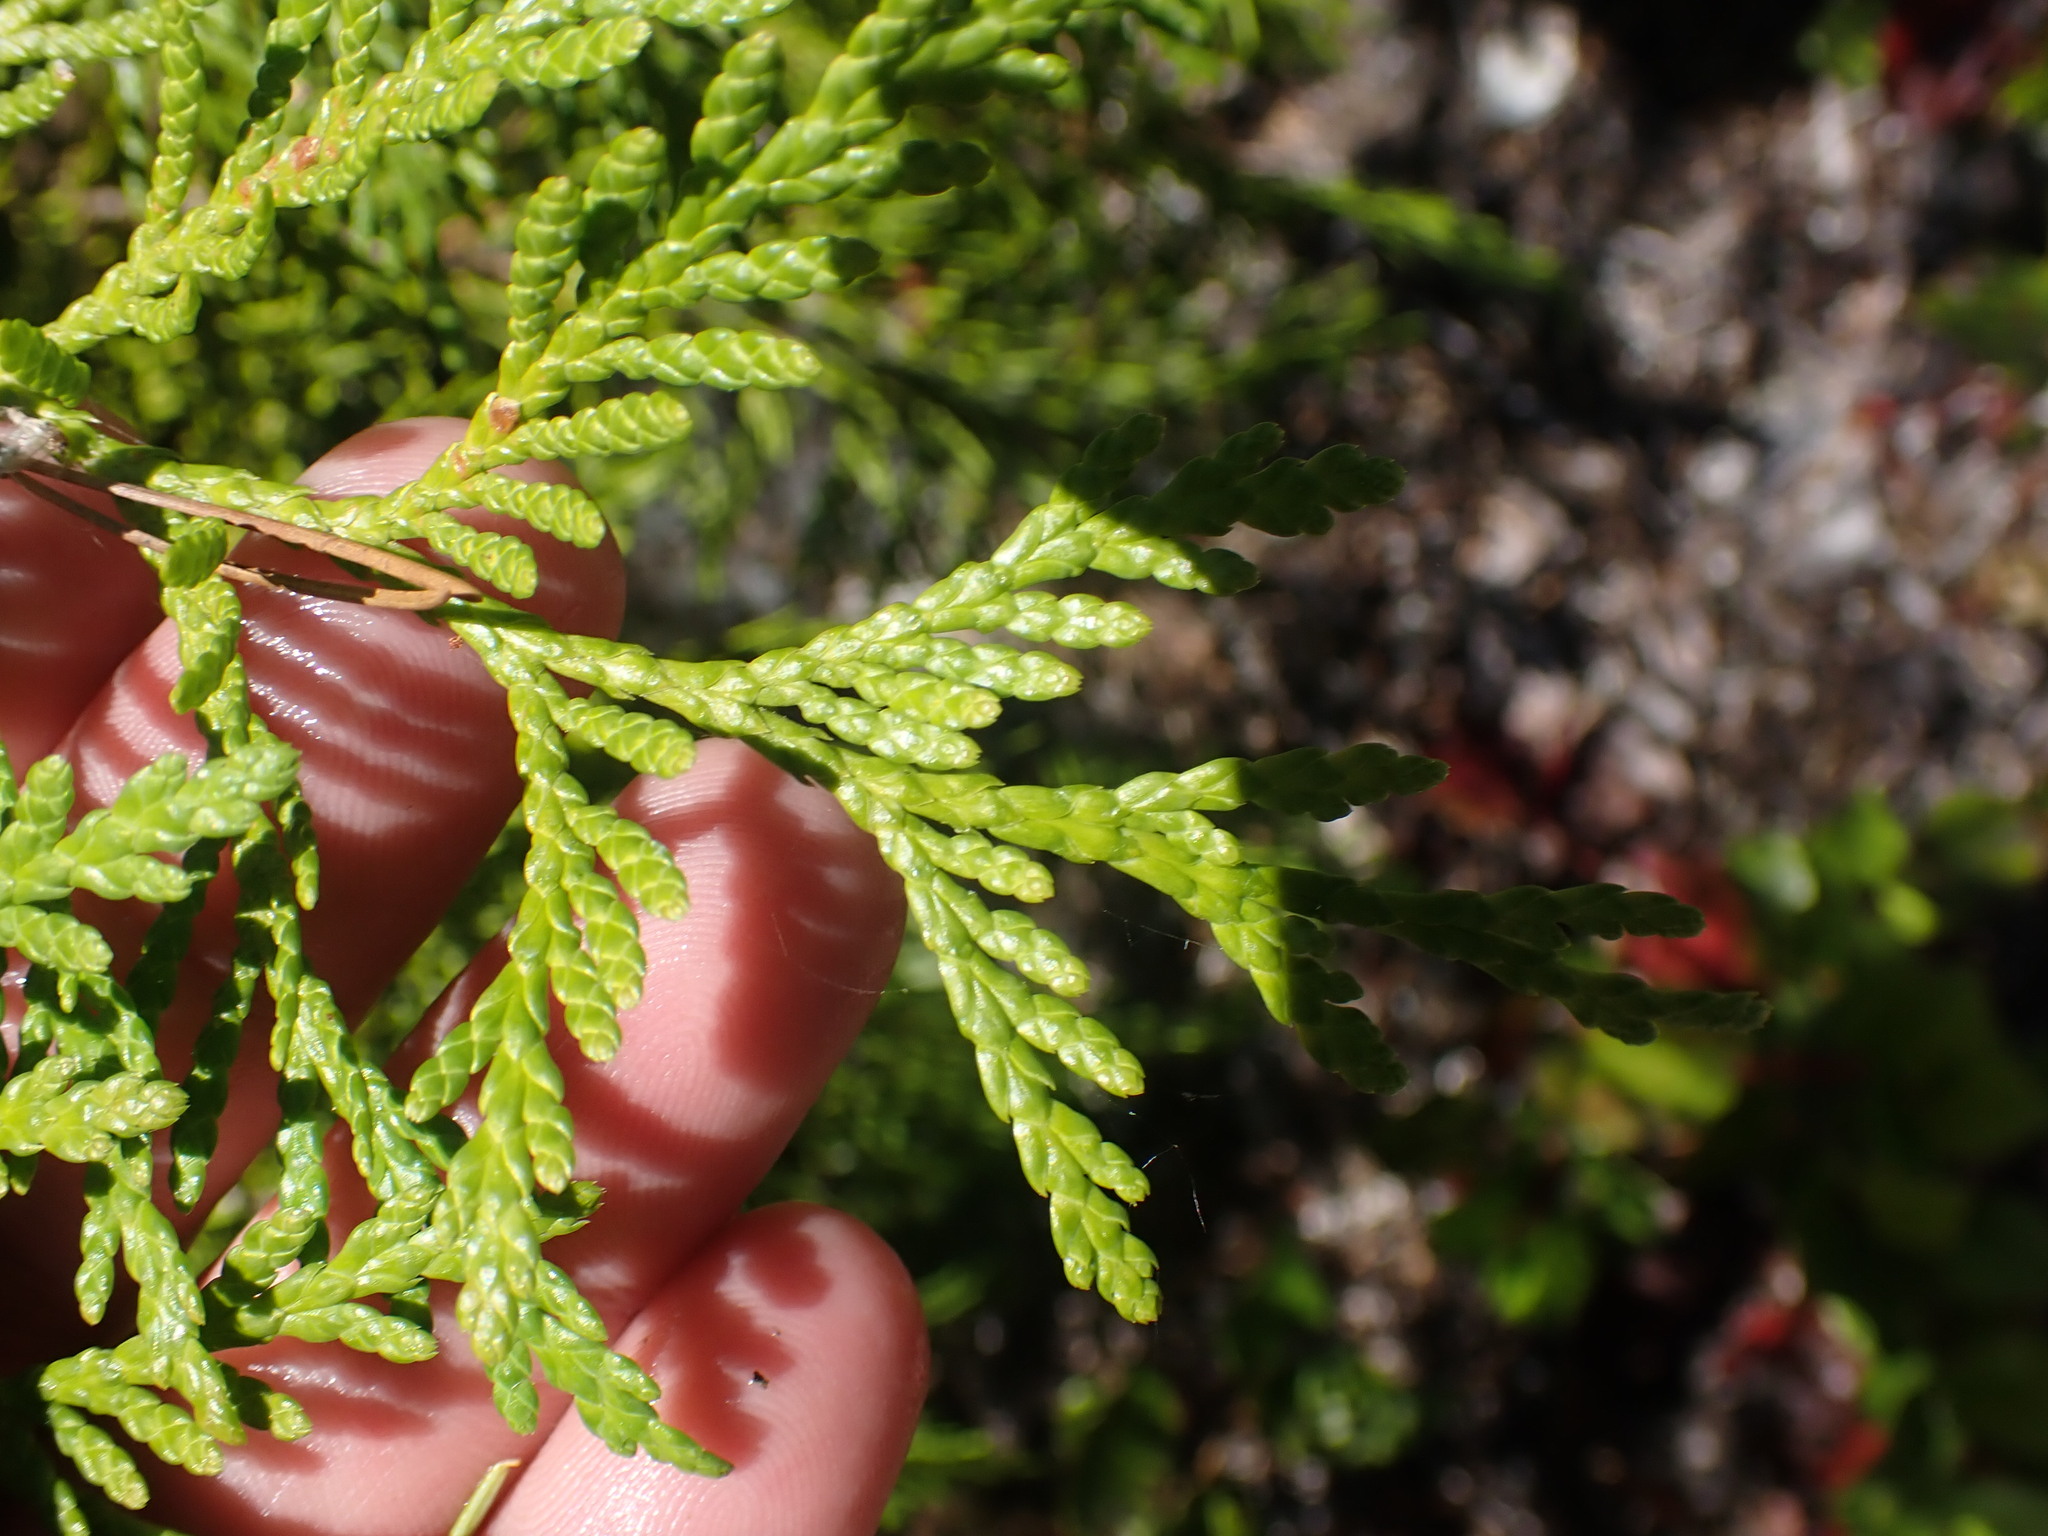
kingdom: Plantae
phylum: Tracheophyta
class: Pinopsida
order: Pinales
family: Cupressaceae
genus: Thuja
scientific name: Thuja plicata
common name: Western red-cedar
